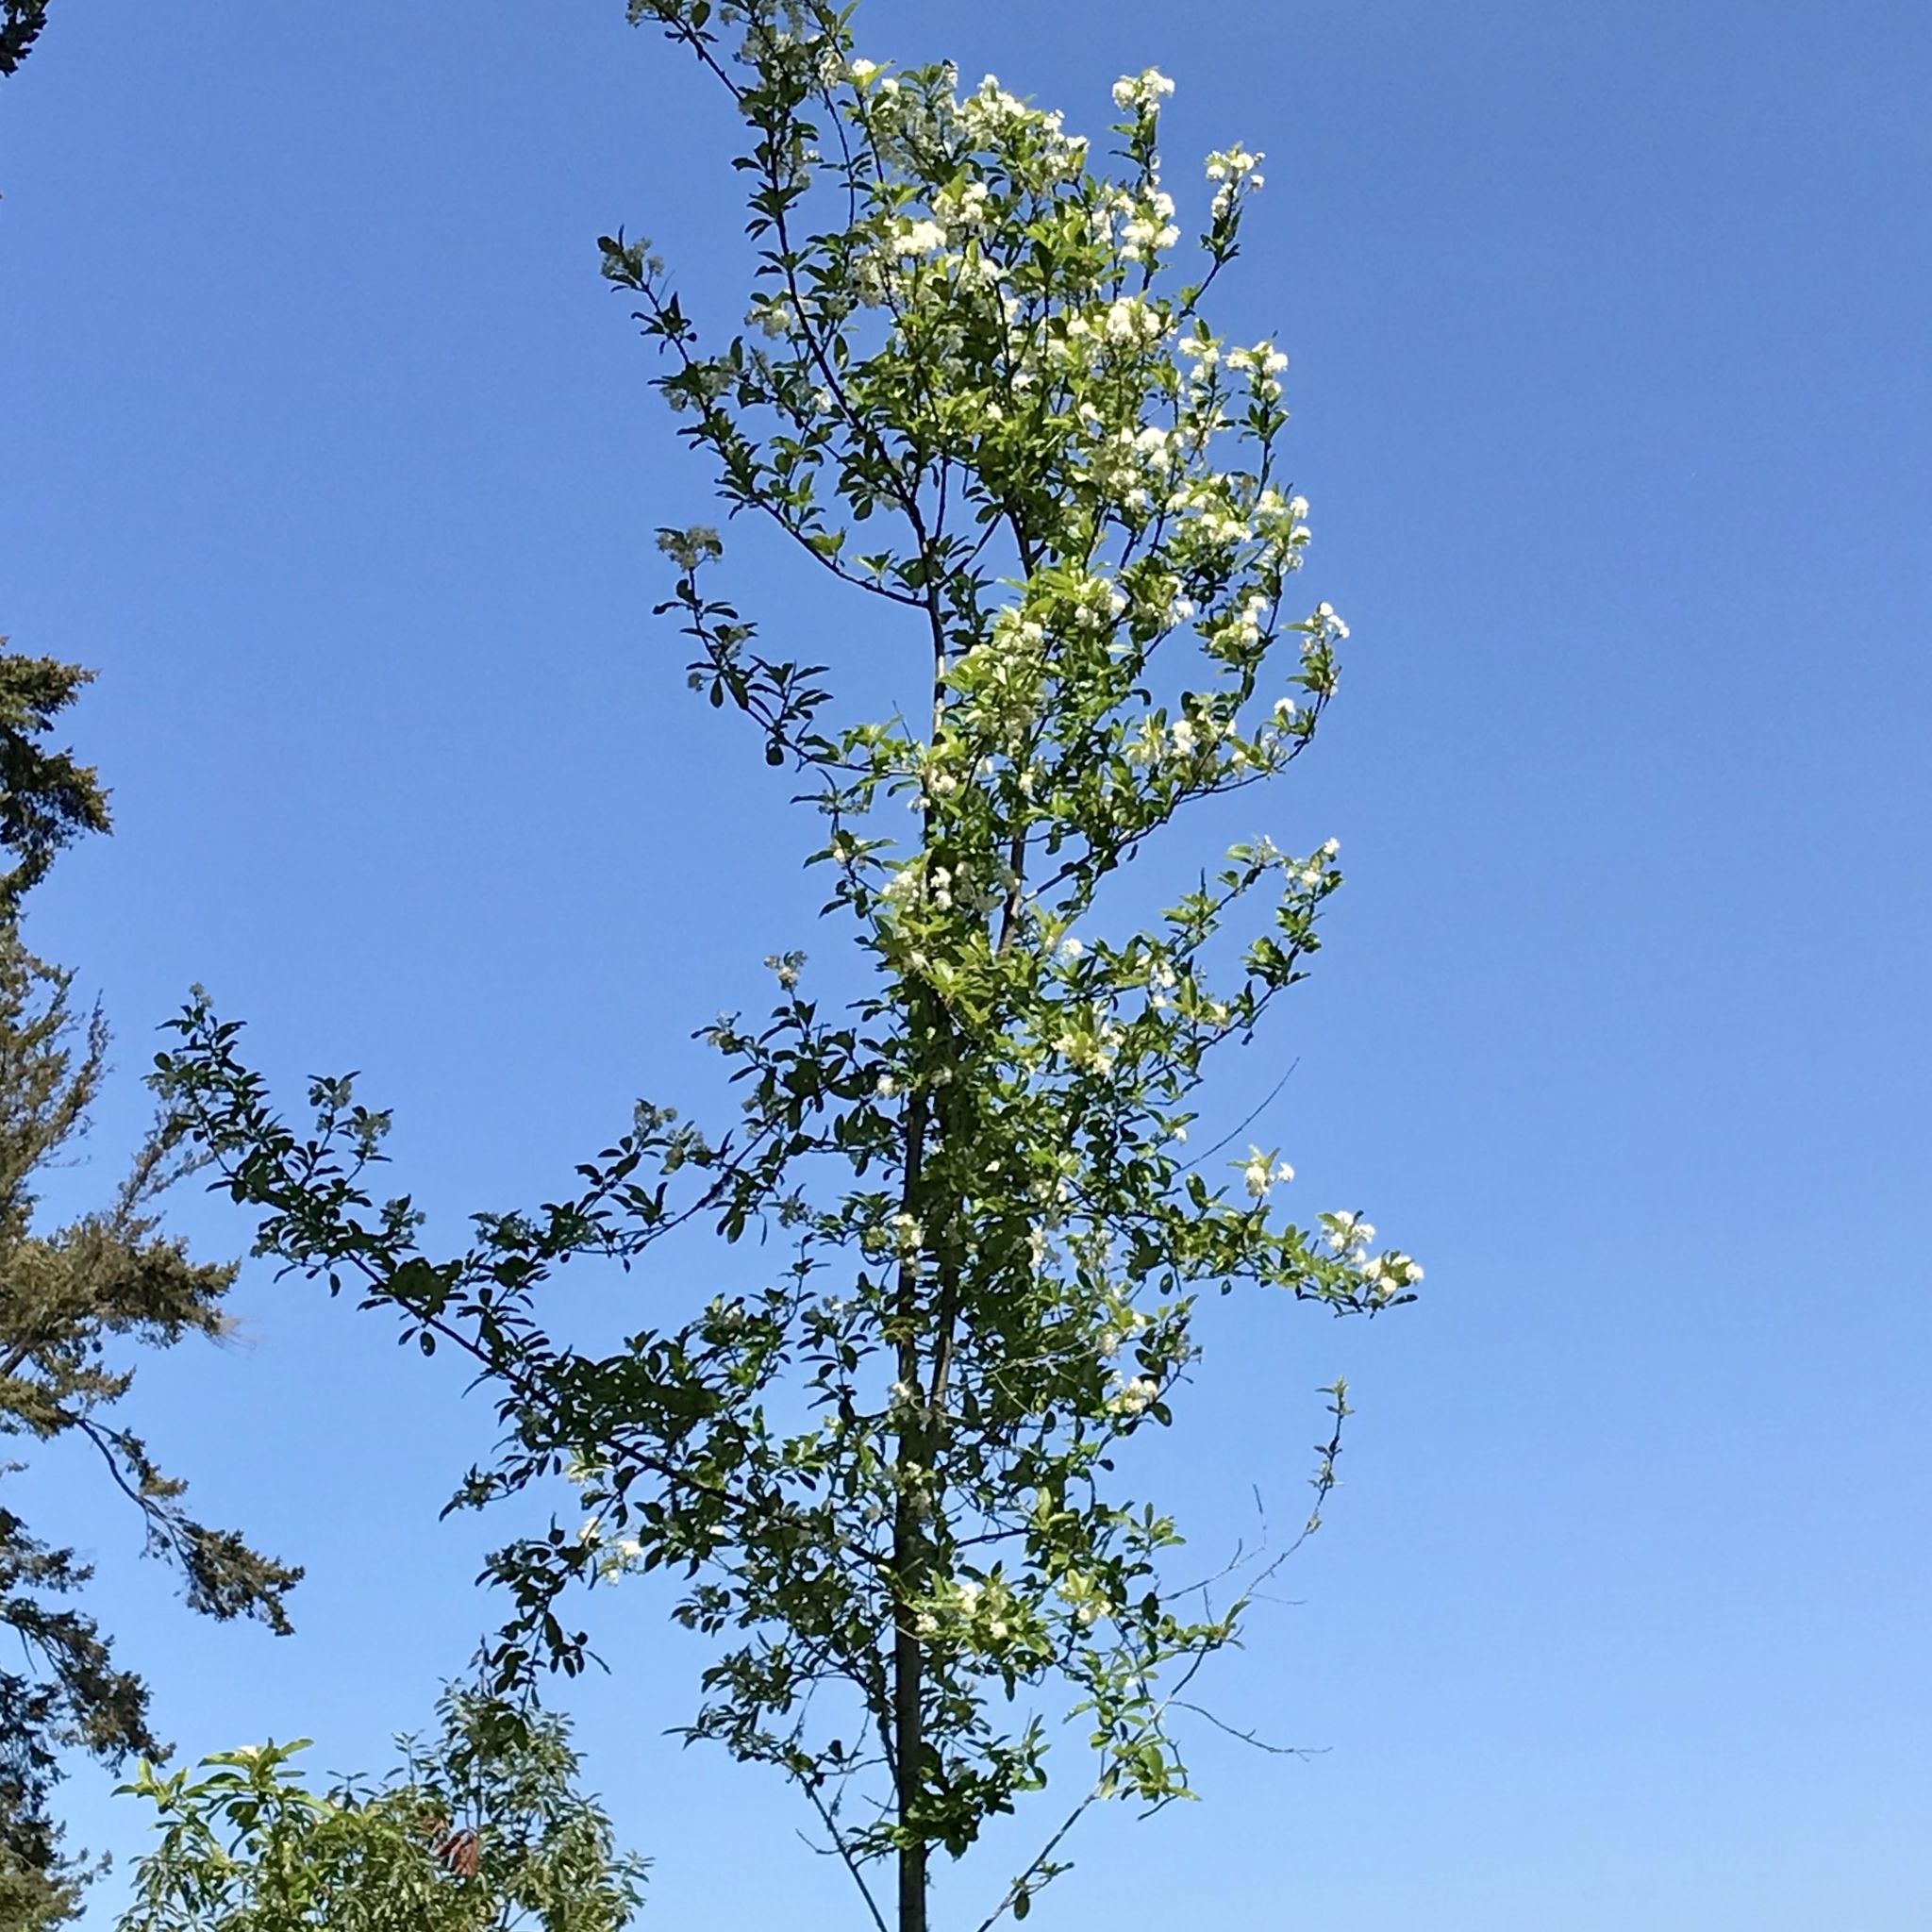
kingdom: Plantae
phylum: Tracheophyta
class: Magnoliopsida
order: Rosales
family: Rosaceae
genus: Prunus
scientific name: Prunus emarginata
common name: Bitter cherry
